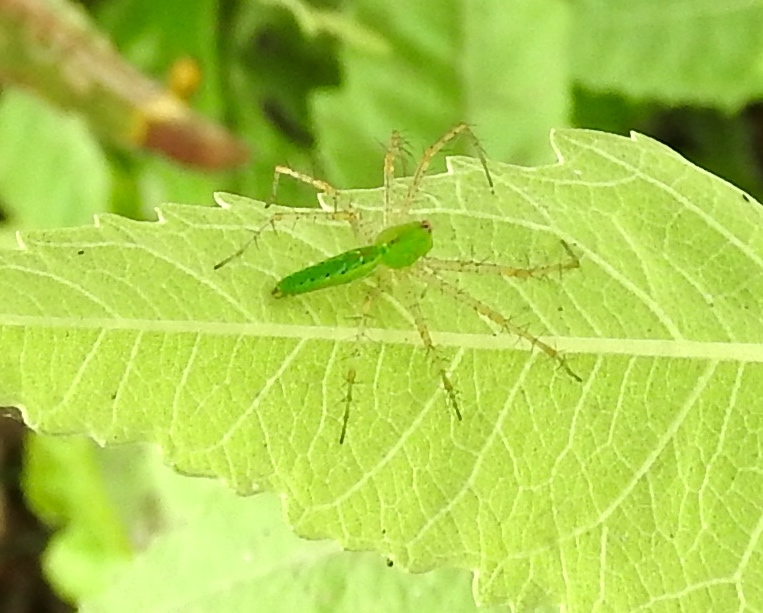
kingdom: Animalia
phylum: Arthropoda
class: Arachnida
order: Araneae
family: Oxyopidae
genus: Peucetia
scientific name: Peucetia viridans
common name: Lynx spiders
